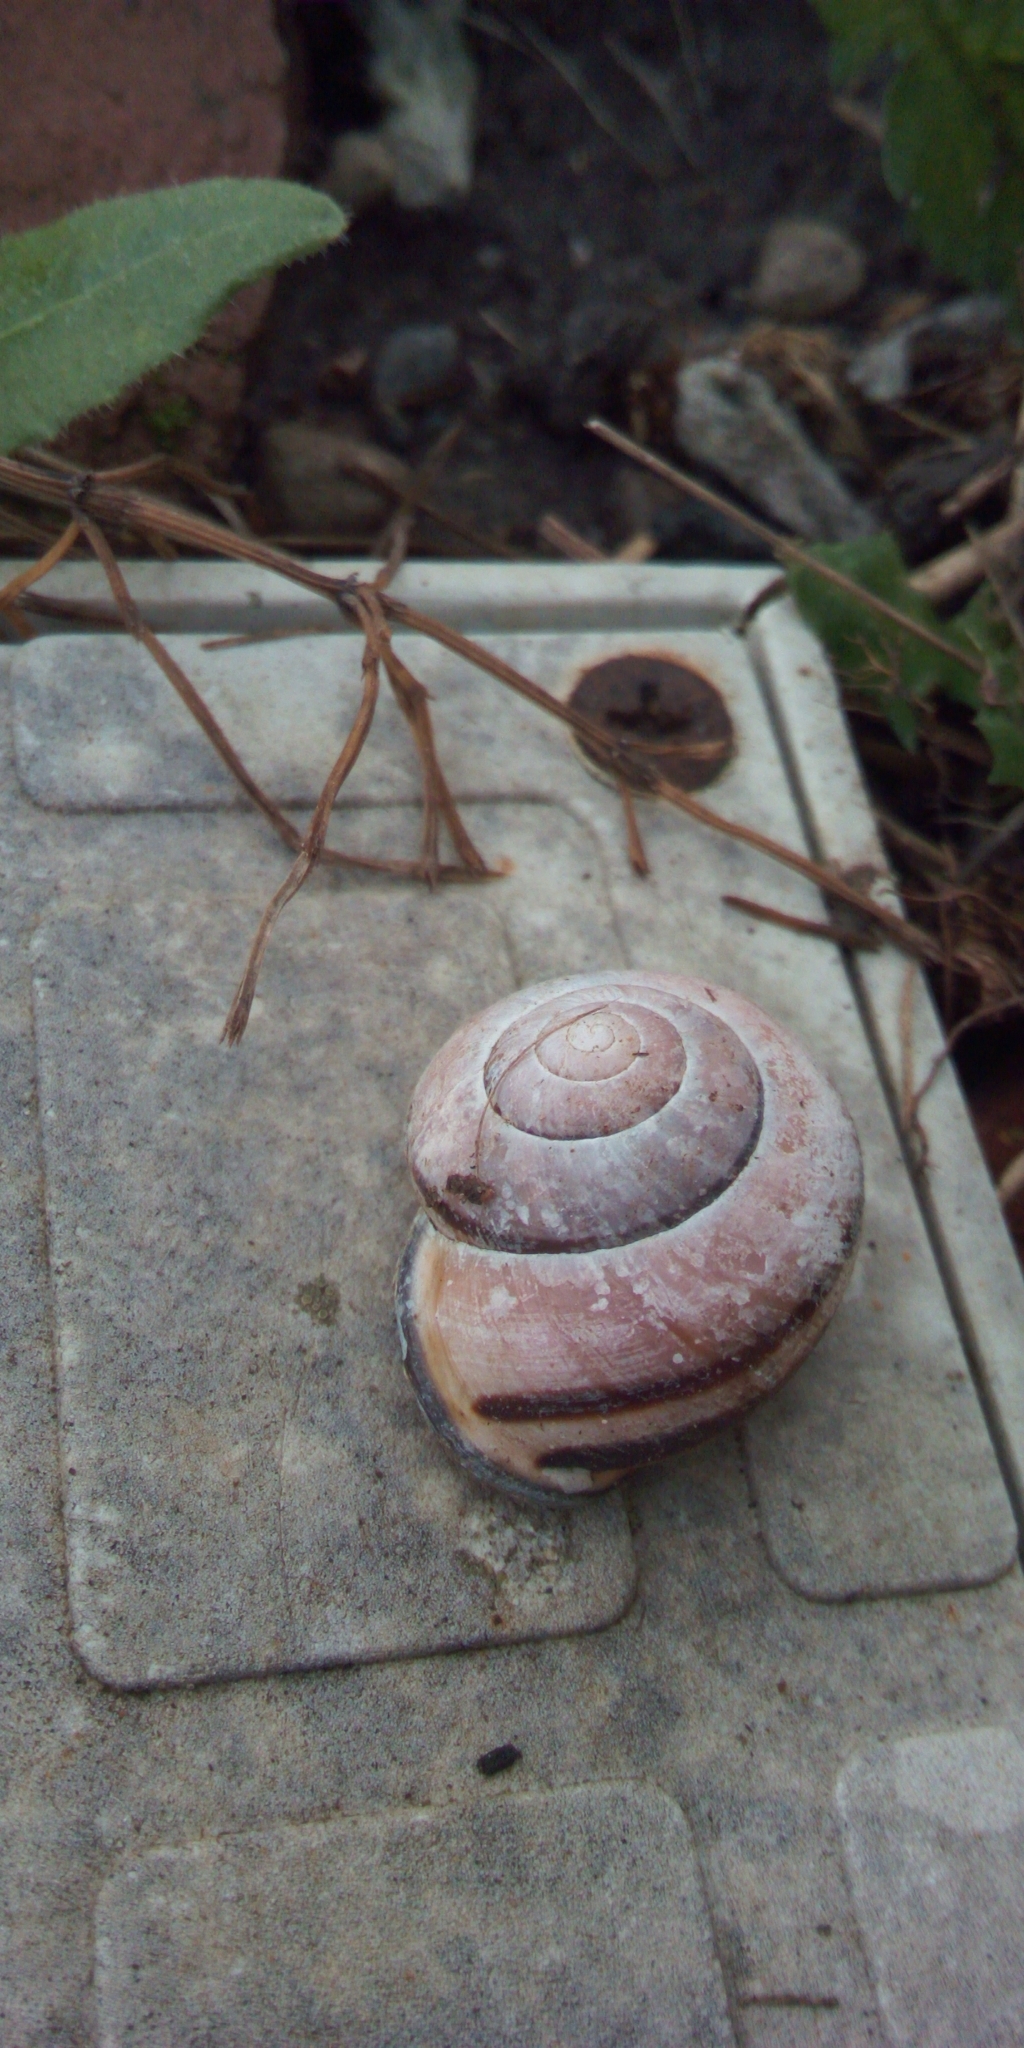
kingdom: Animalia
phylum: Mollusca
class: Gastropoda
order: Stylommatophora
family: Helicidae
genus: Cepaea
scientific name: Cepaea nemoralis
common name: Grovesnail
